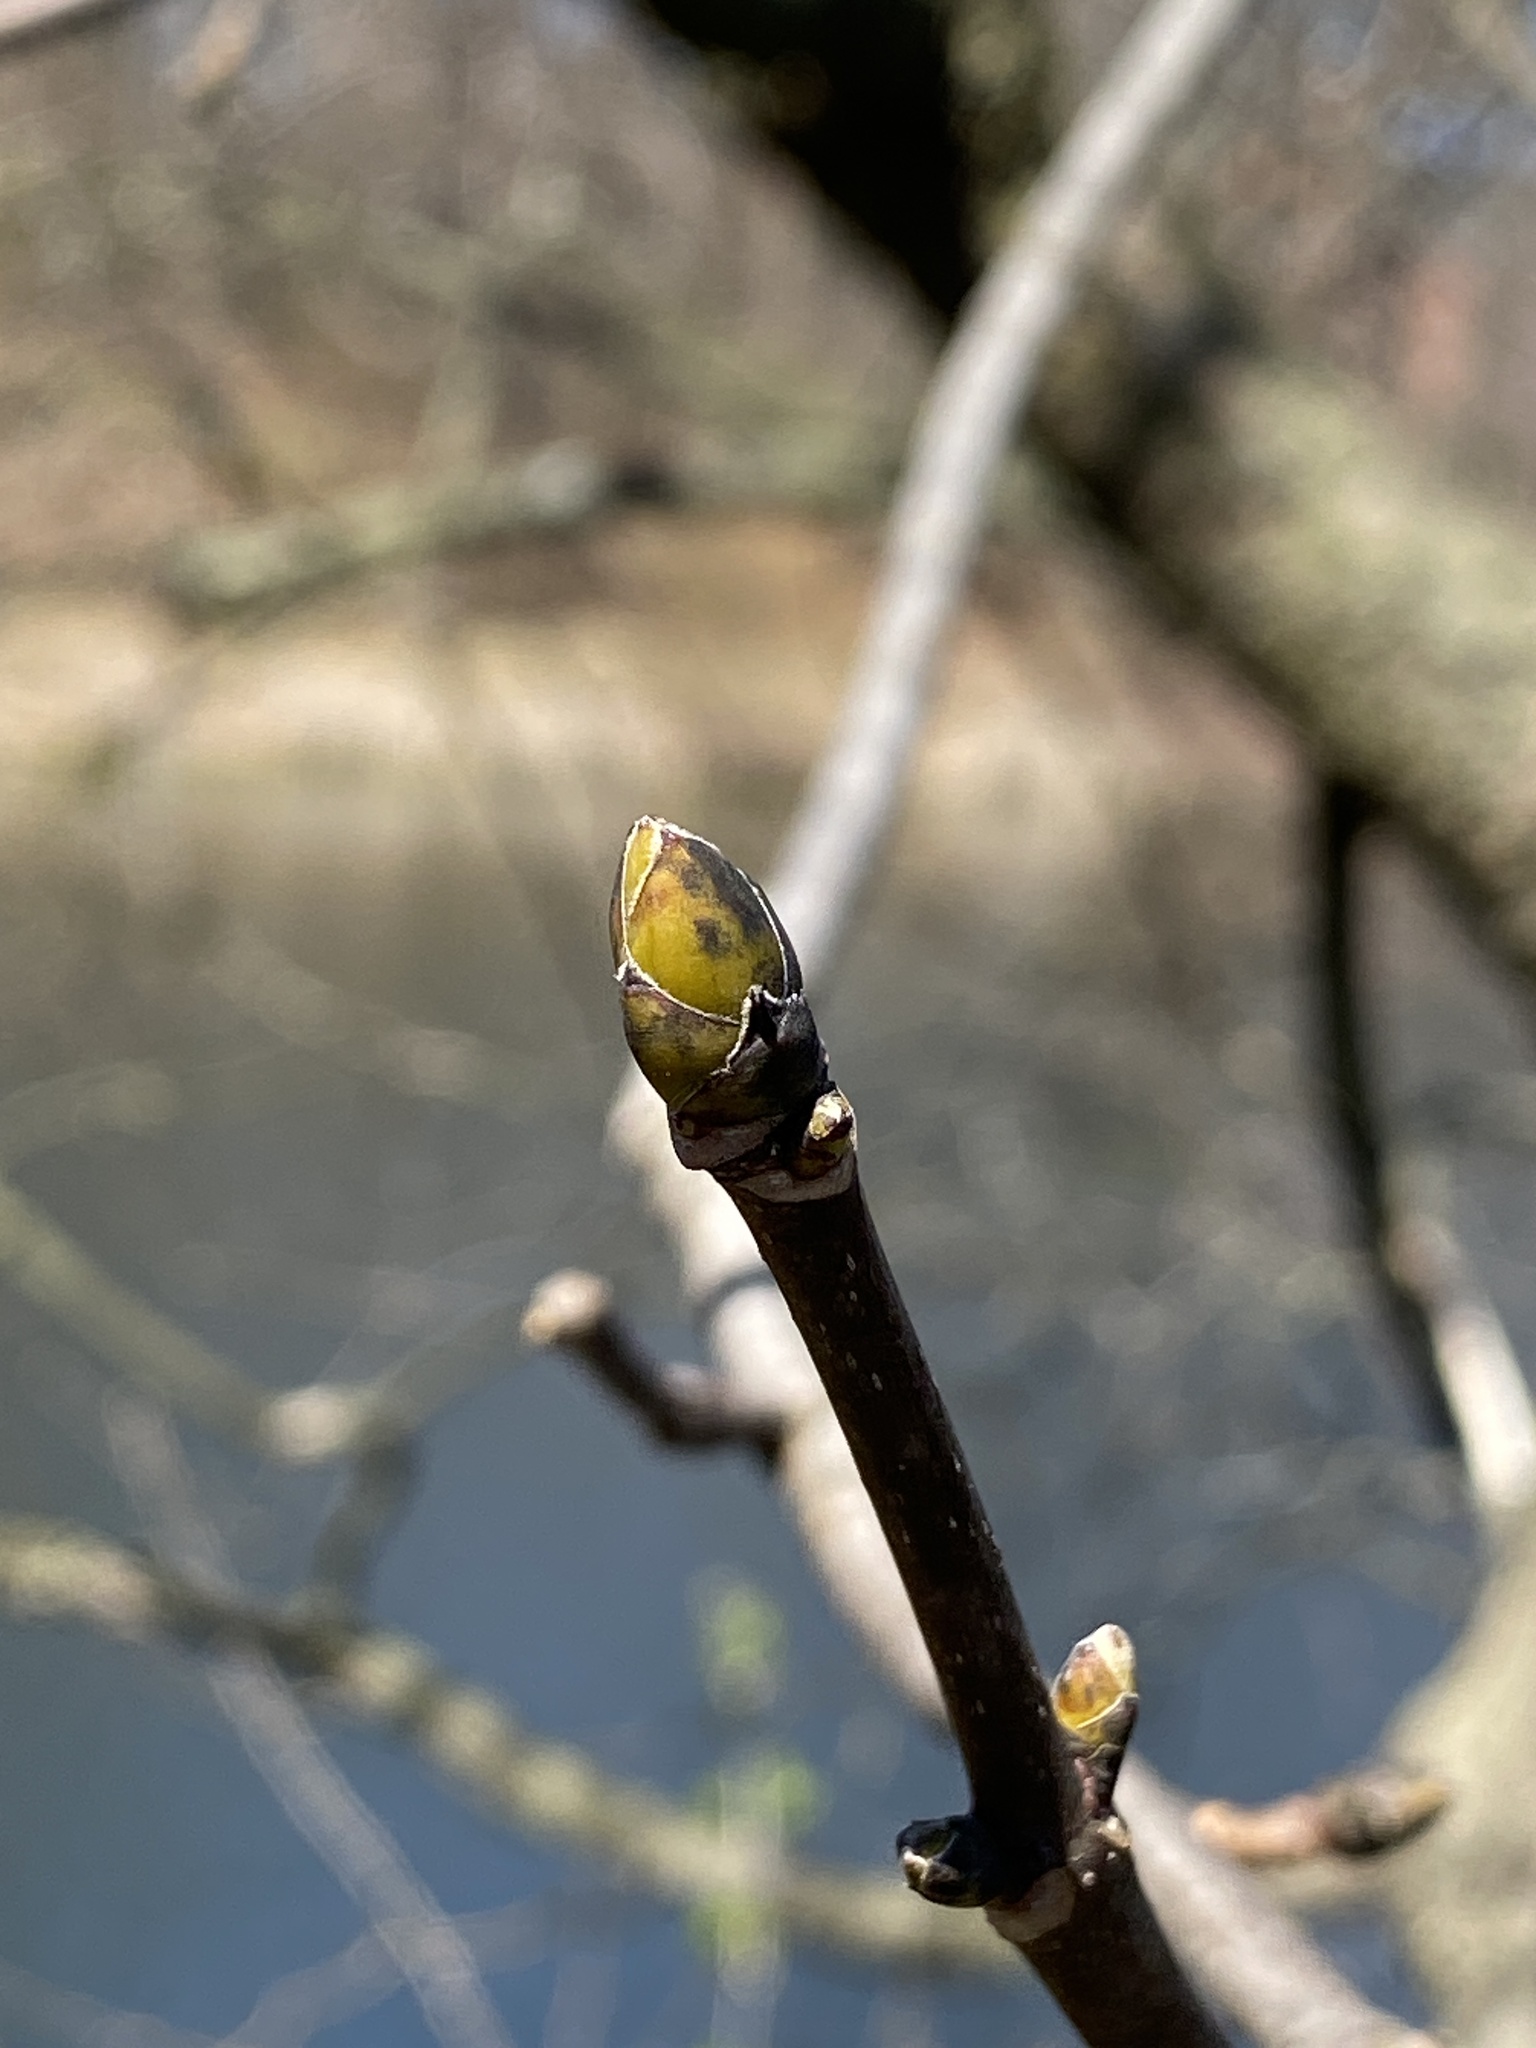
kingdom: Plantae
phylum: Tracheophyta
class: Magnoliopsida
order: Sapindales
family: Sapindaceae
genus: Acer
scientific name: Acer pseudoplatanus
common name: Sycamore
